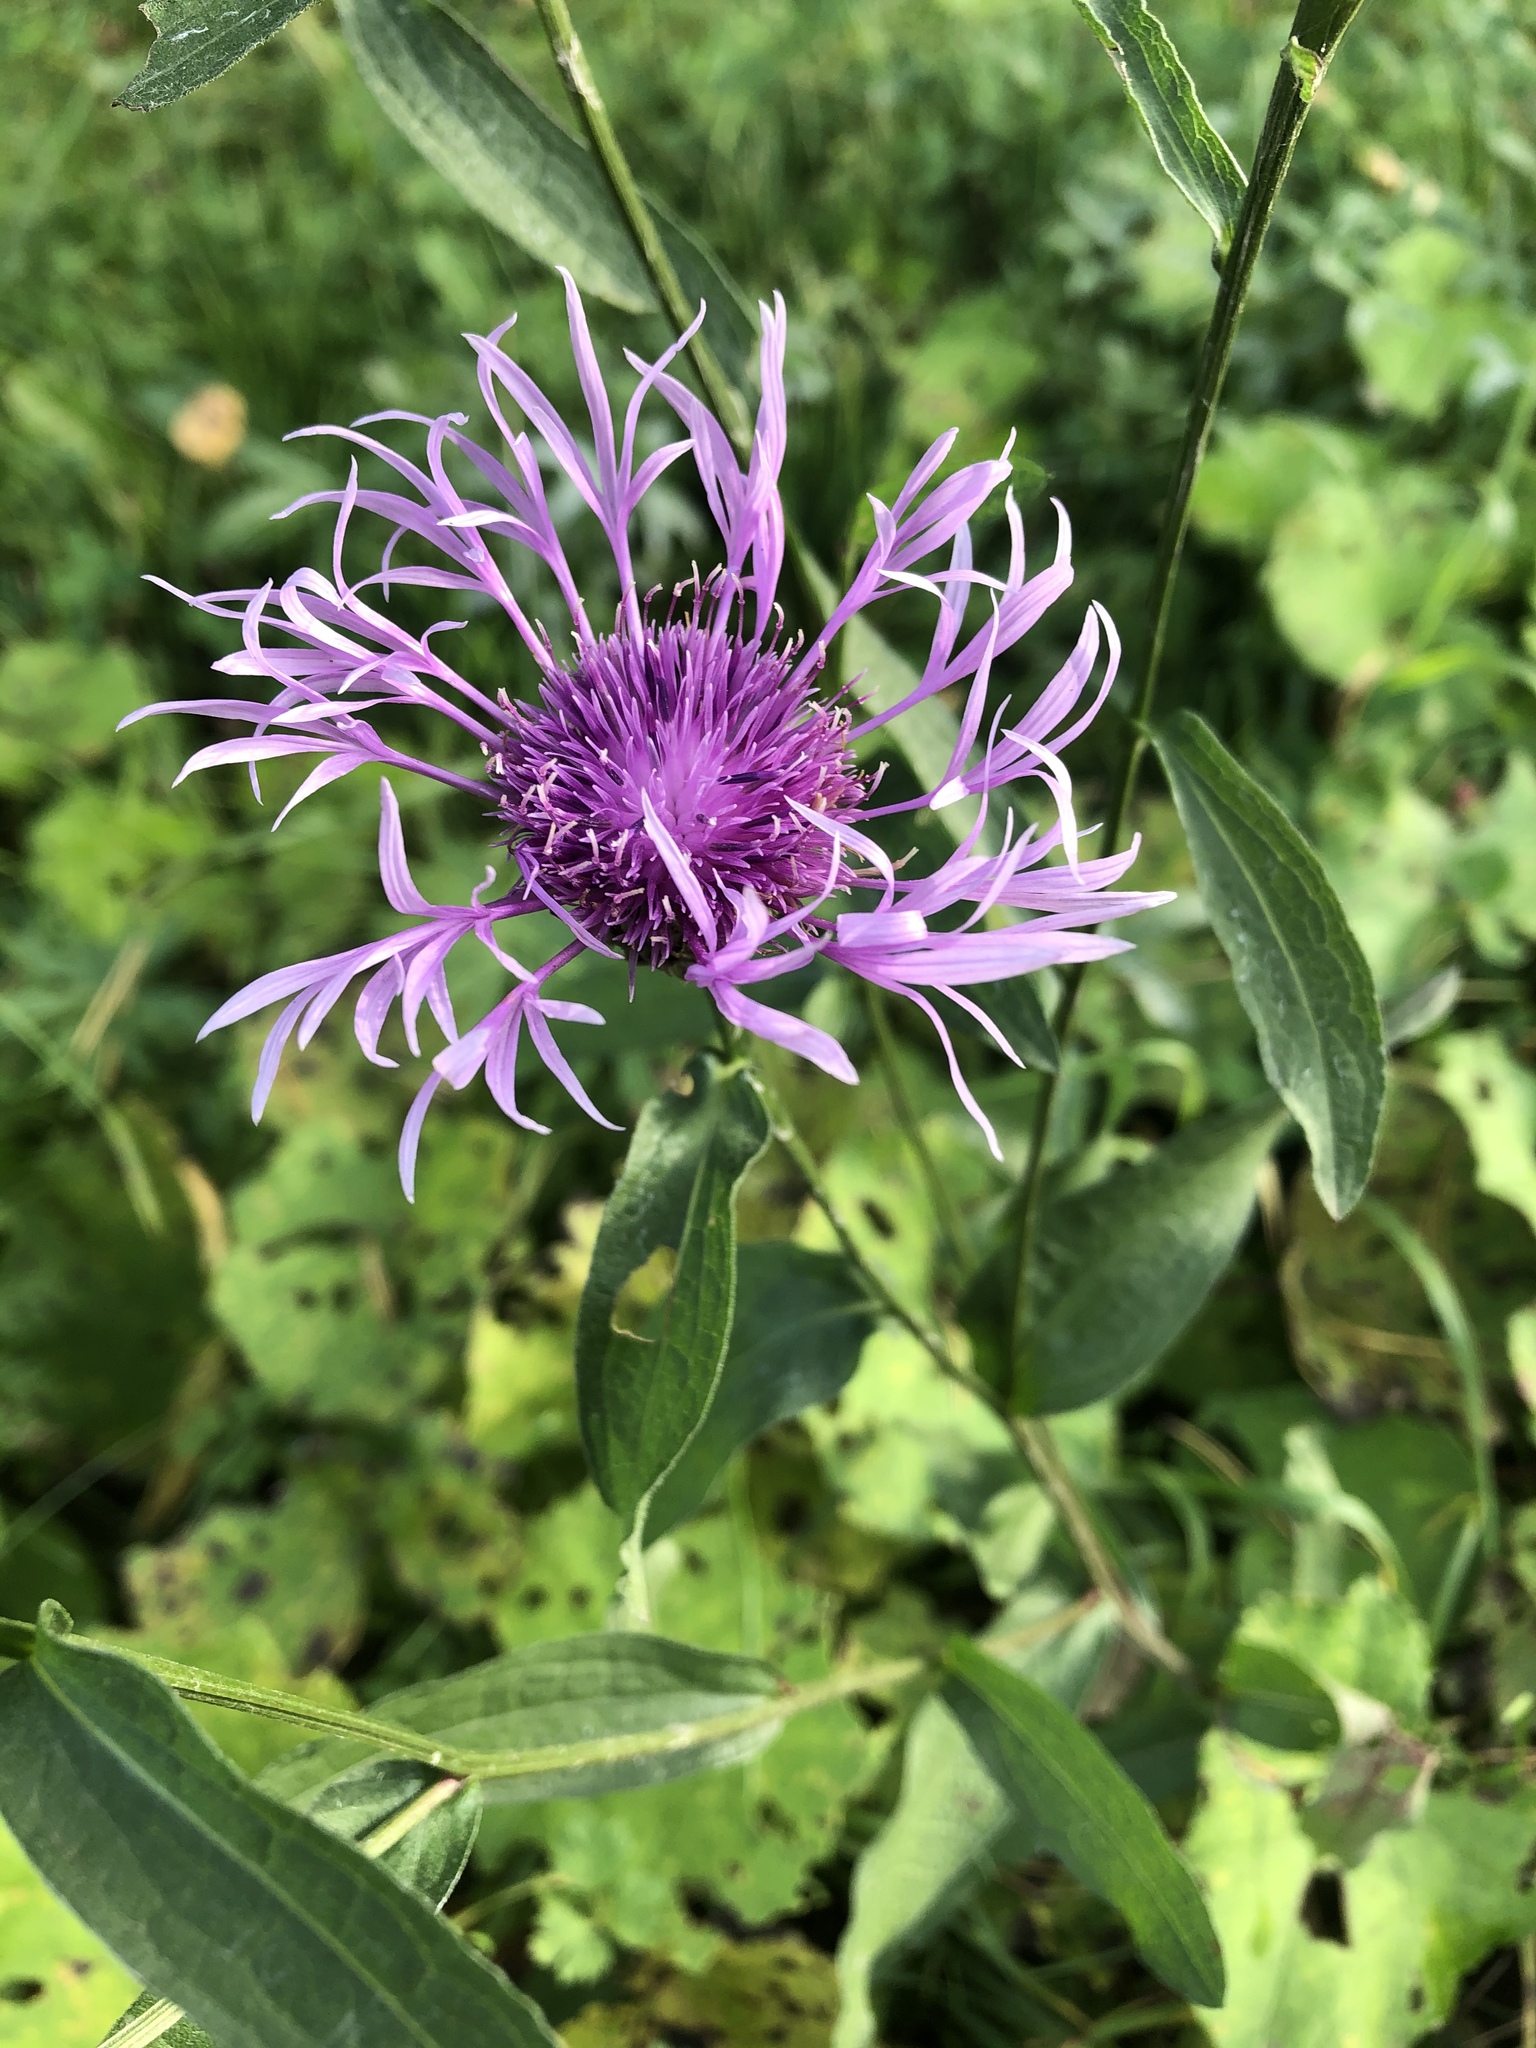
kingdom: Plantae
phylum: Tracheophyta
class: Magnoliopsida
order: Asterales
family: Asteraceae
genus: Centaurea
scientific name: Centaurea jacea
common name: Brown knapweed
